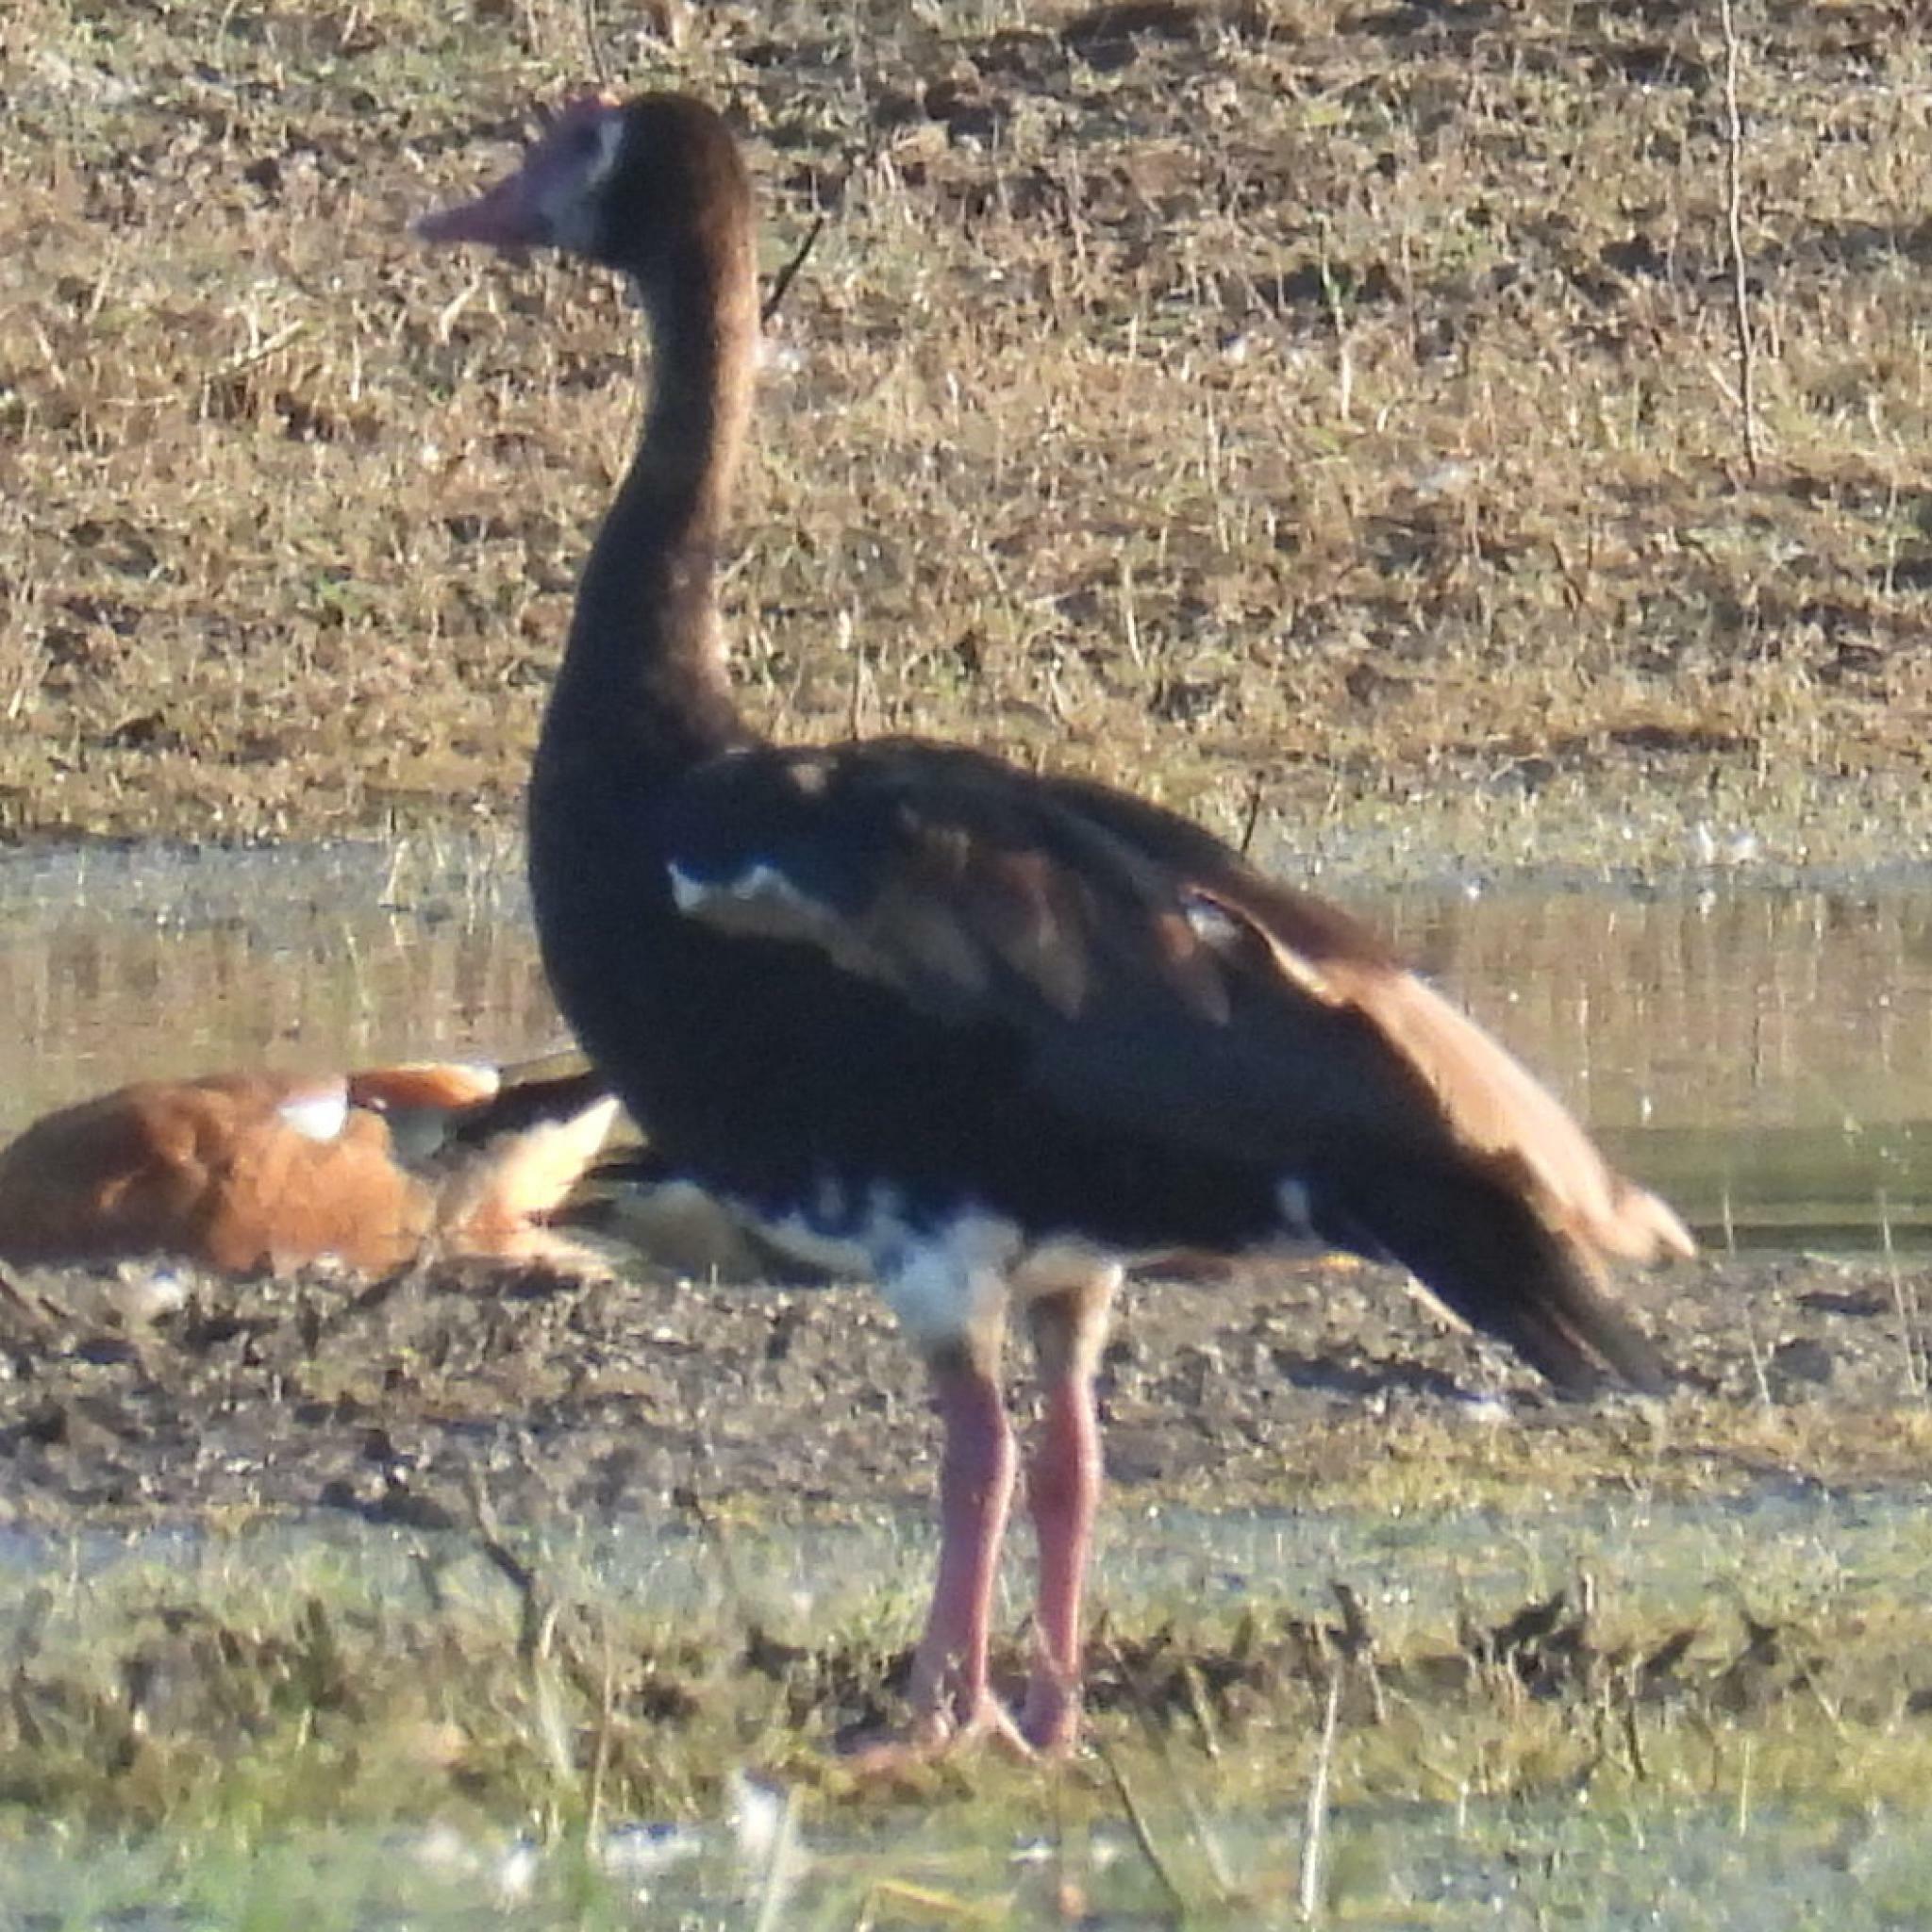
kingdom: Animalia
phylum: Chordata
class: Aves
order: Anseriformes
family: Anatidae
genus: Plectropterus
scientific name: Plectropterus gambensis
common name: Spur-winged goose
